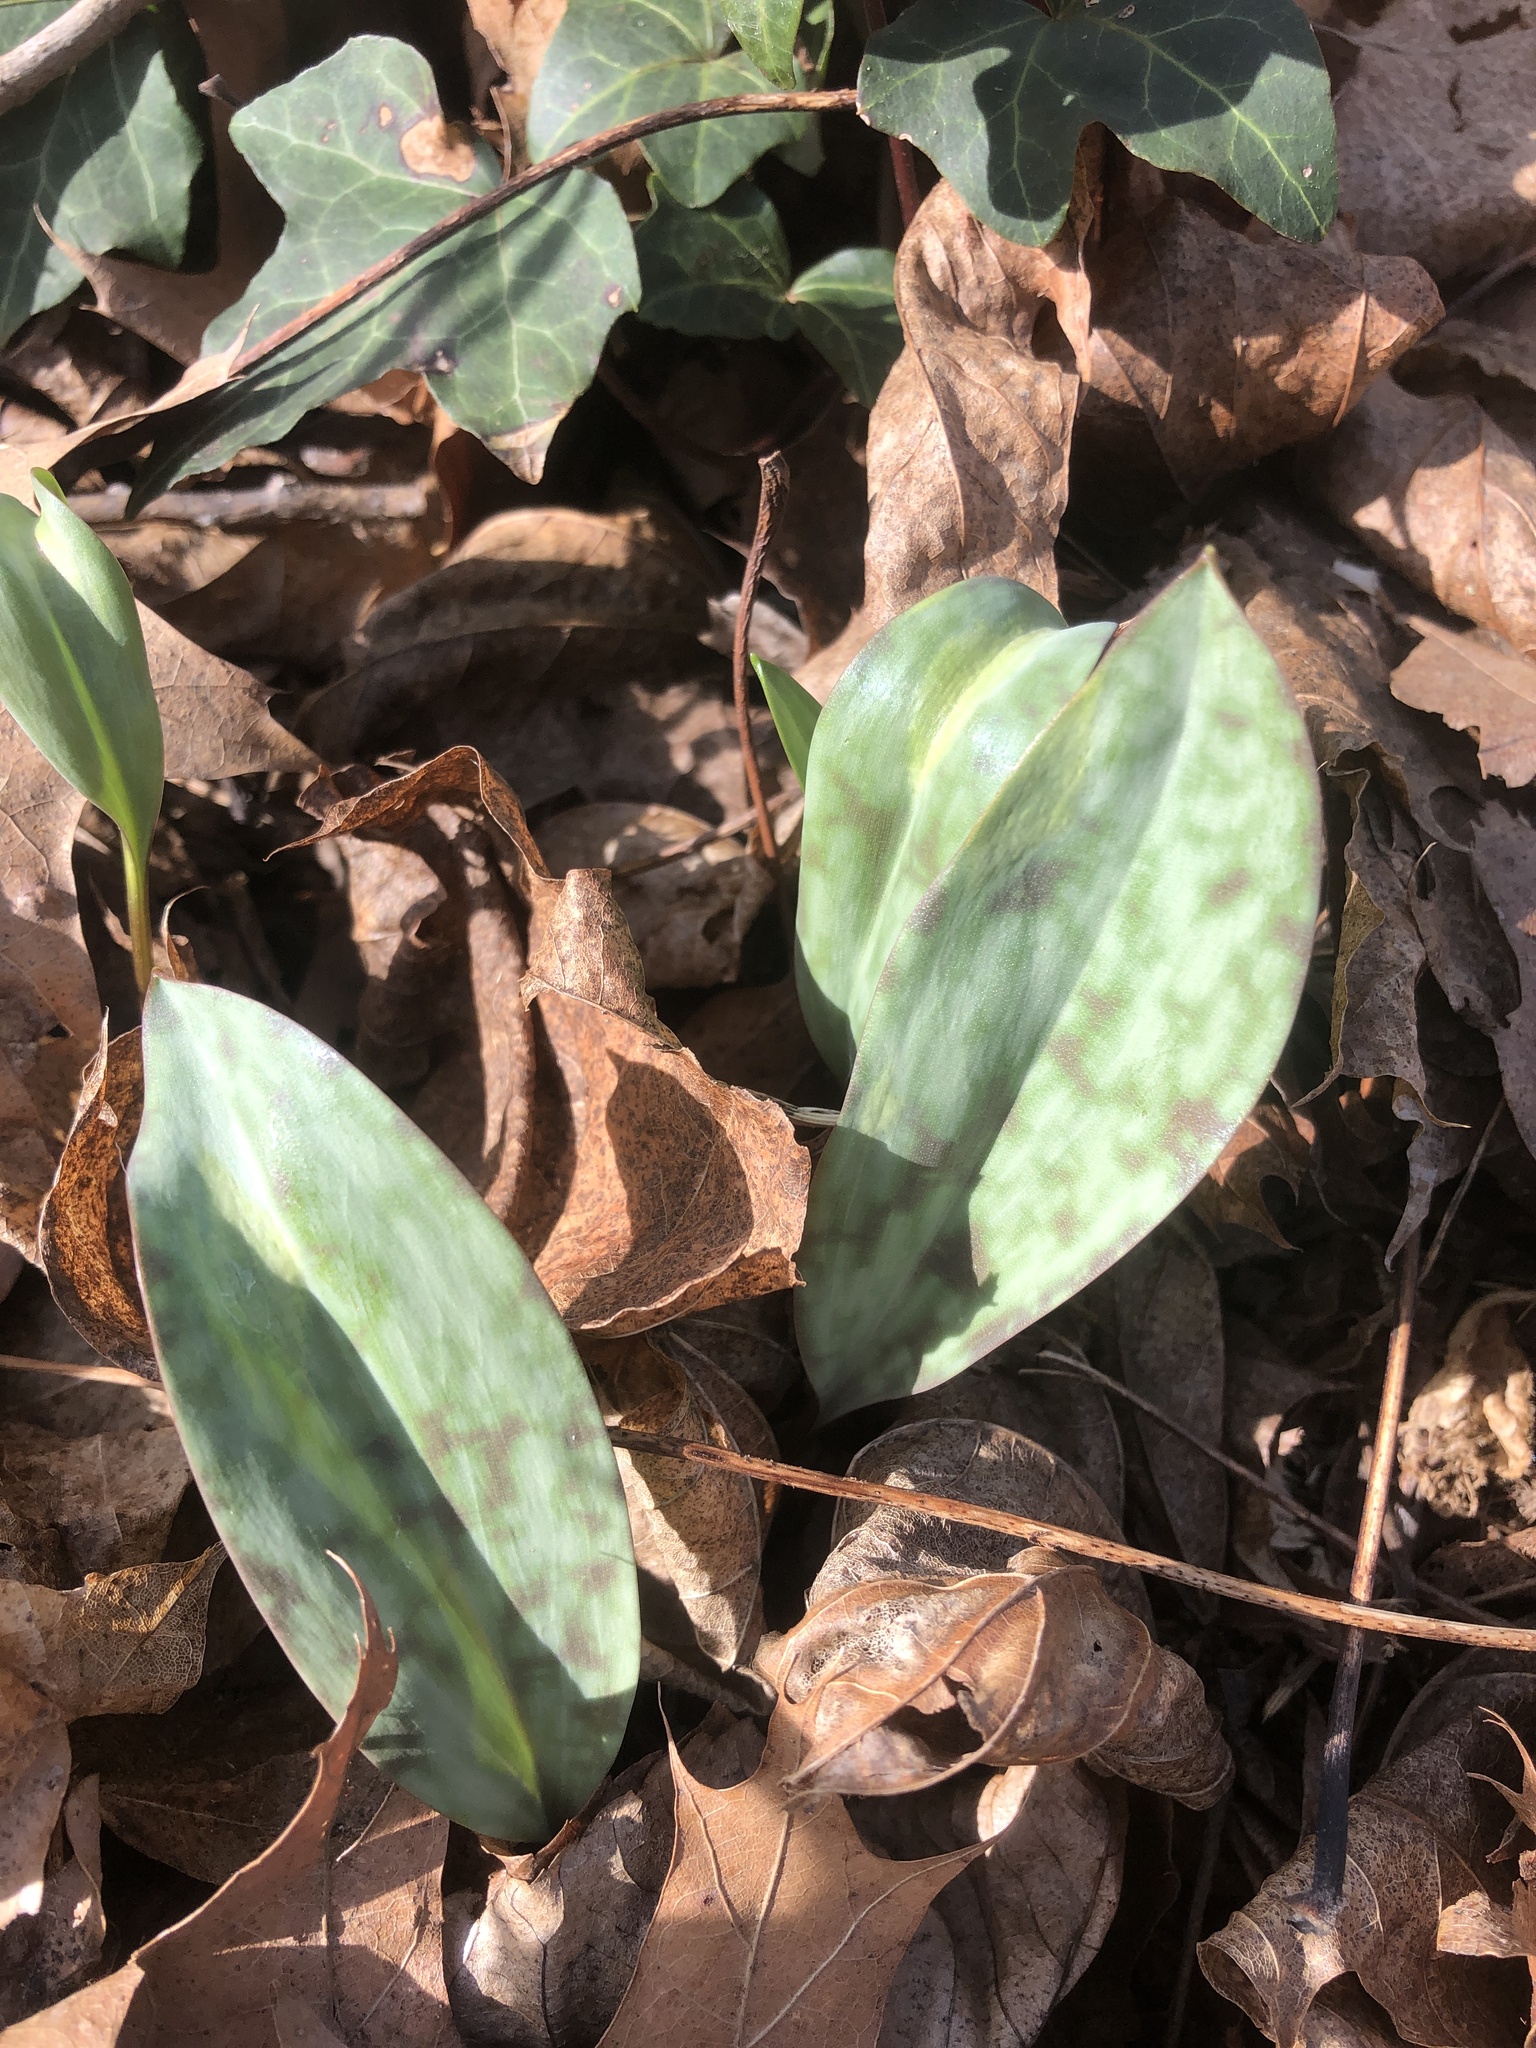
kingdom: Plantae
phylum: Tracheophyta
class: Liliopsida
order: Liliales
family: Liliaceae
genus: Erythronium
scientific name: Erythronium americanum
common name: Yellow adder's-tongue
